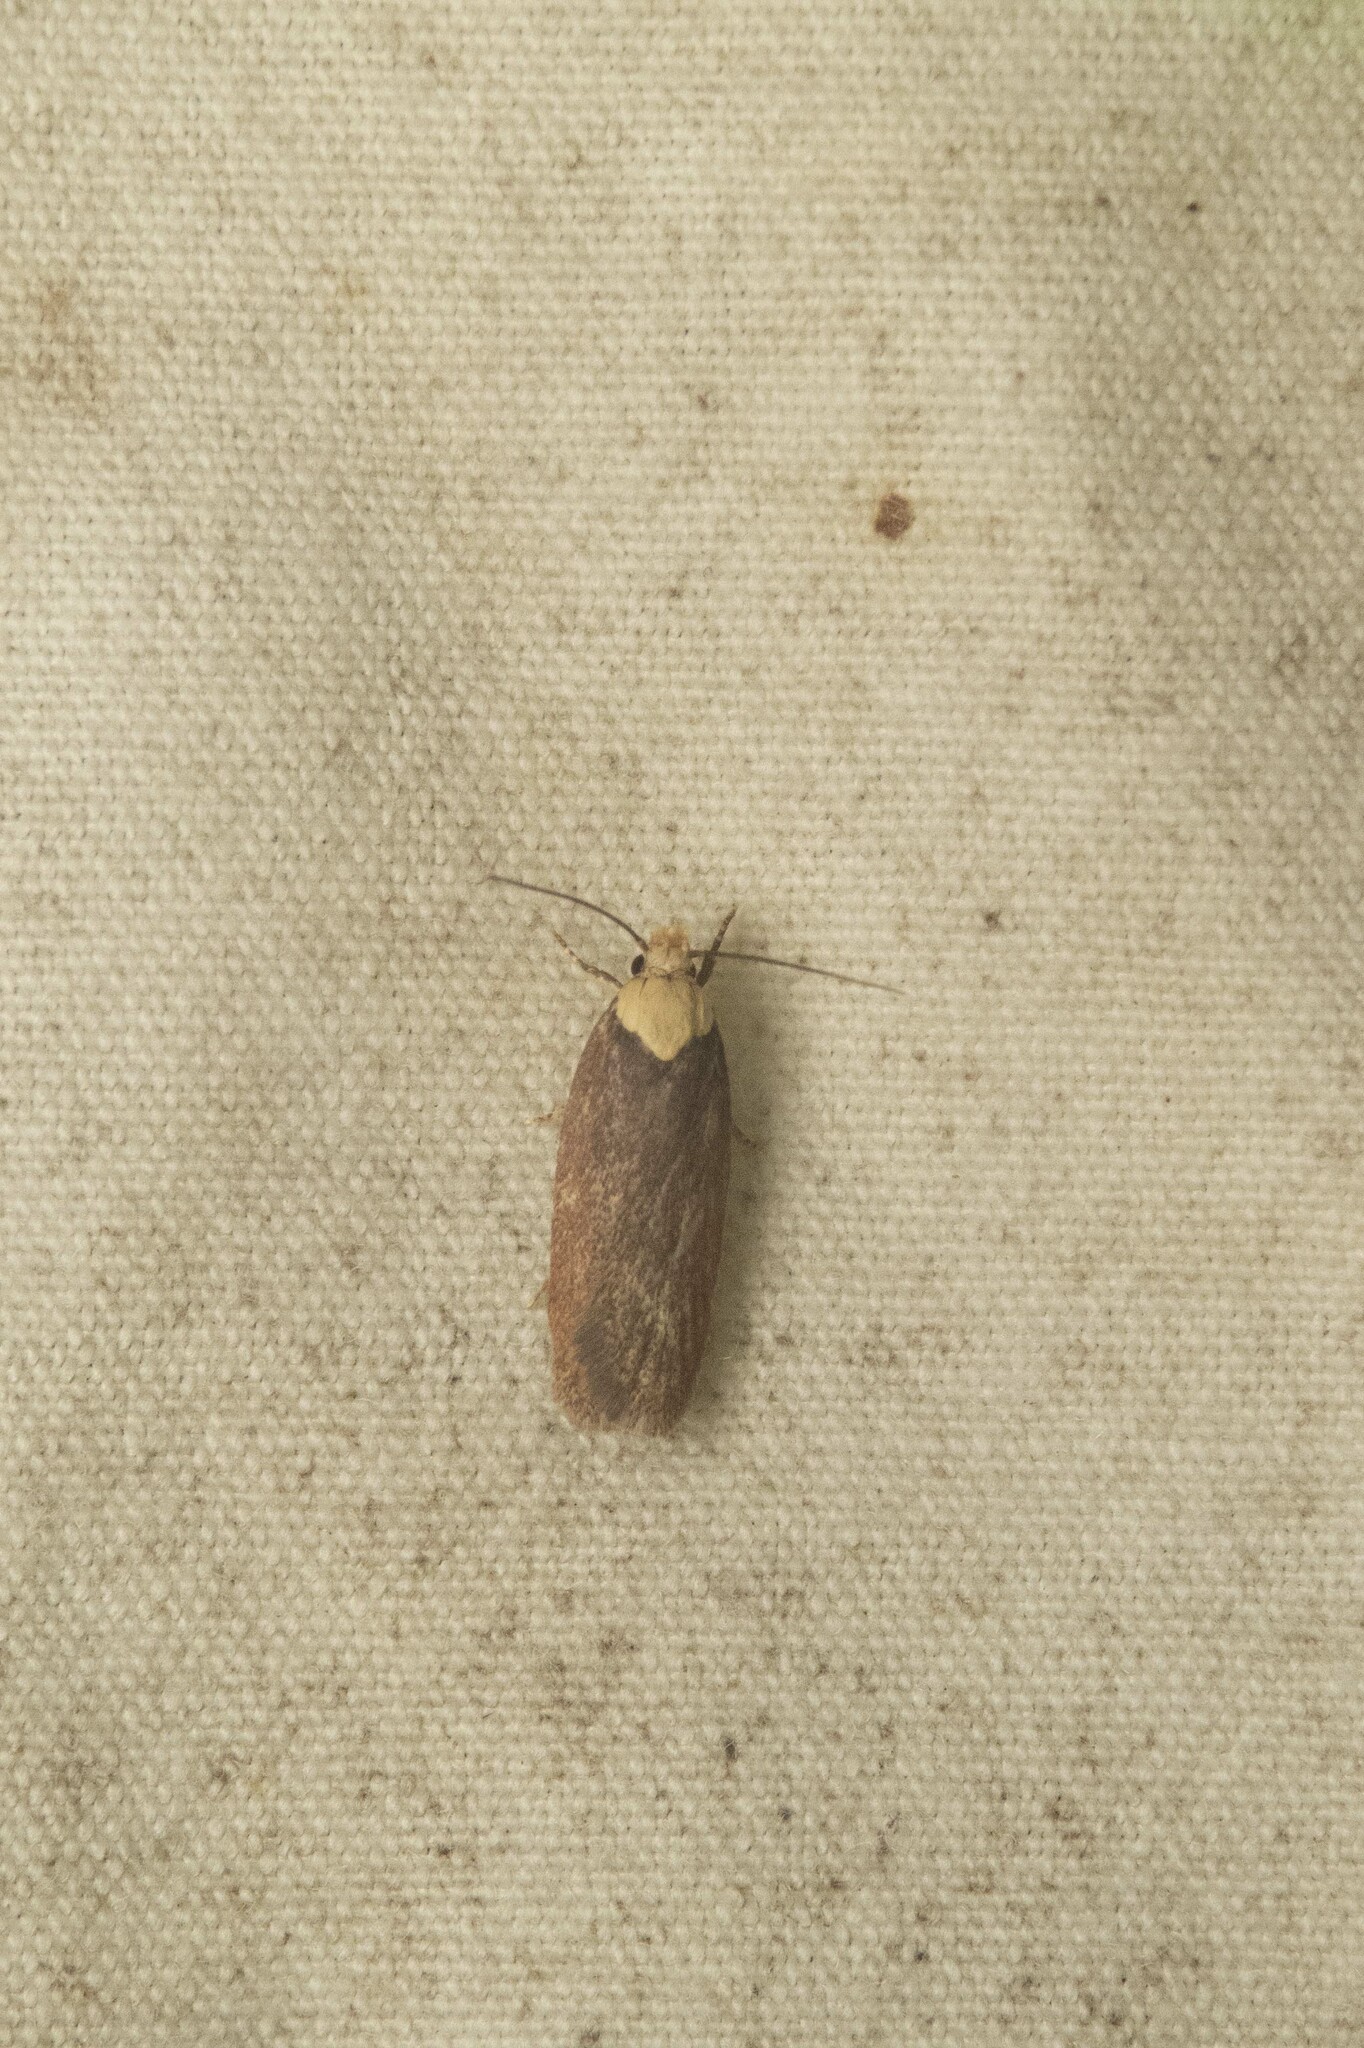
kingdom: Animalia
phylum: Arthropoda
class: Insecta
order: Lepidoptera
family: Depressariidae
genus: Depressaria
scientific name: Depressaria depressana
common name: Lost flat-body
